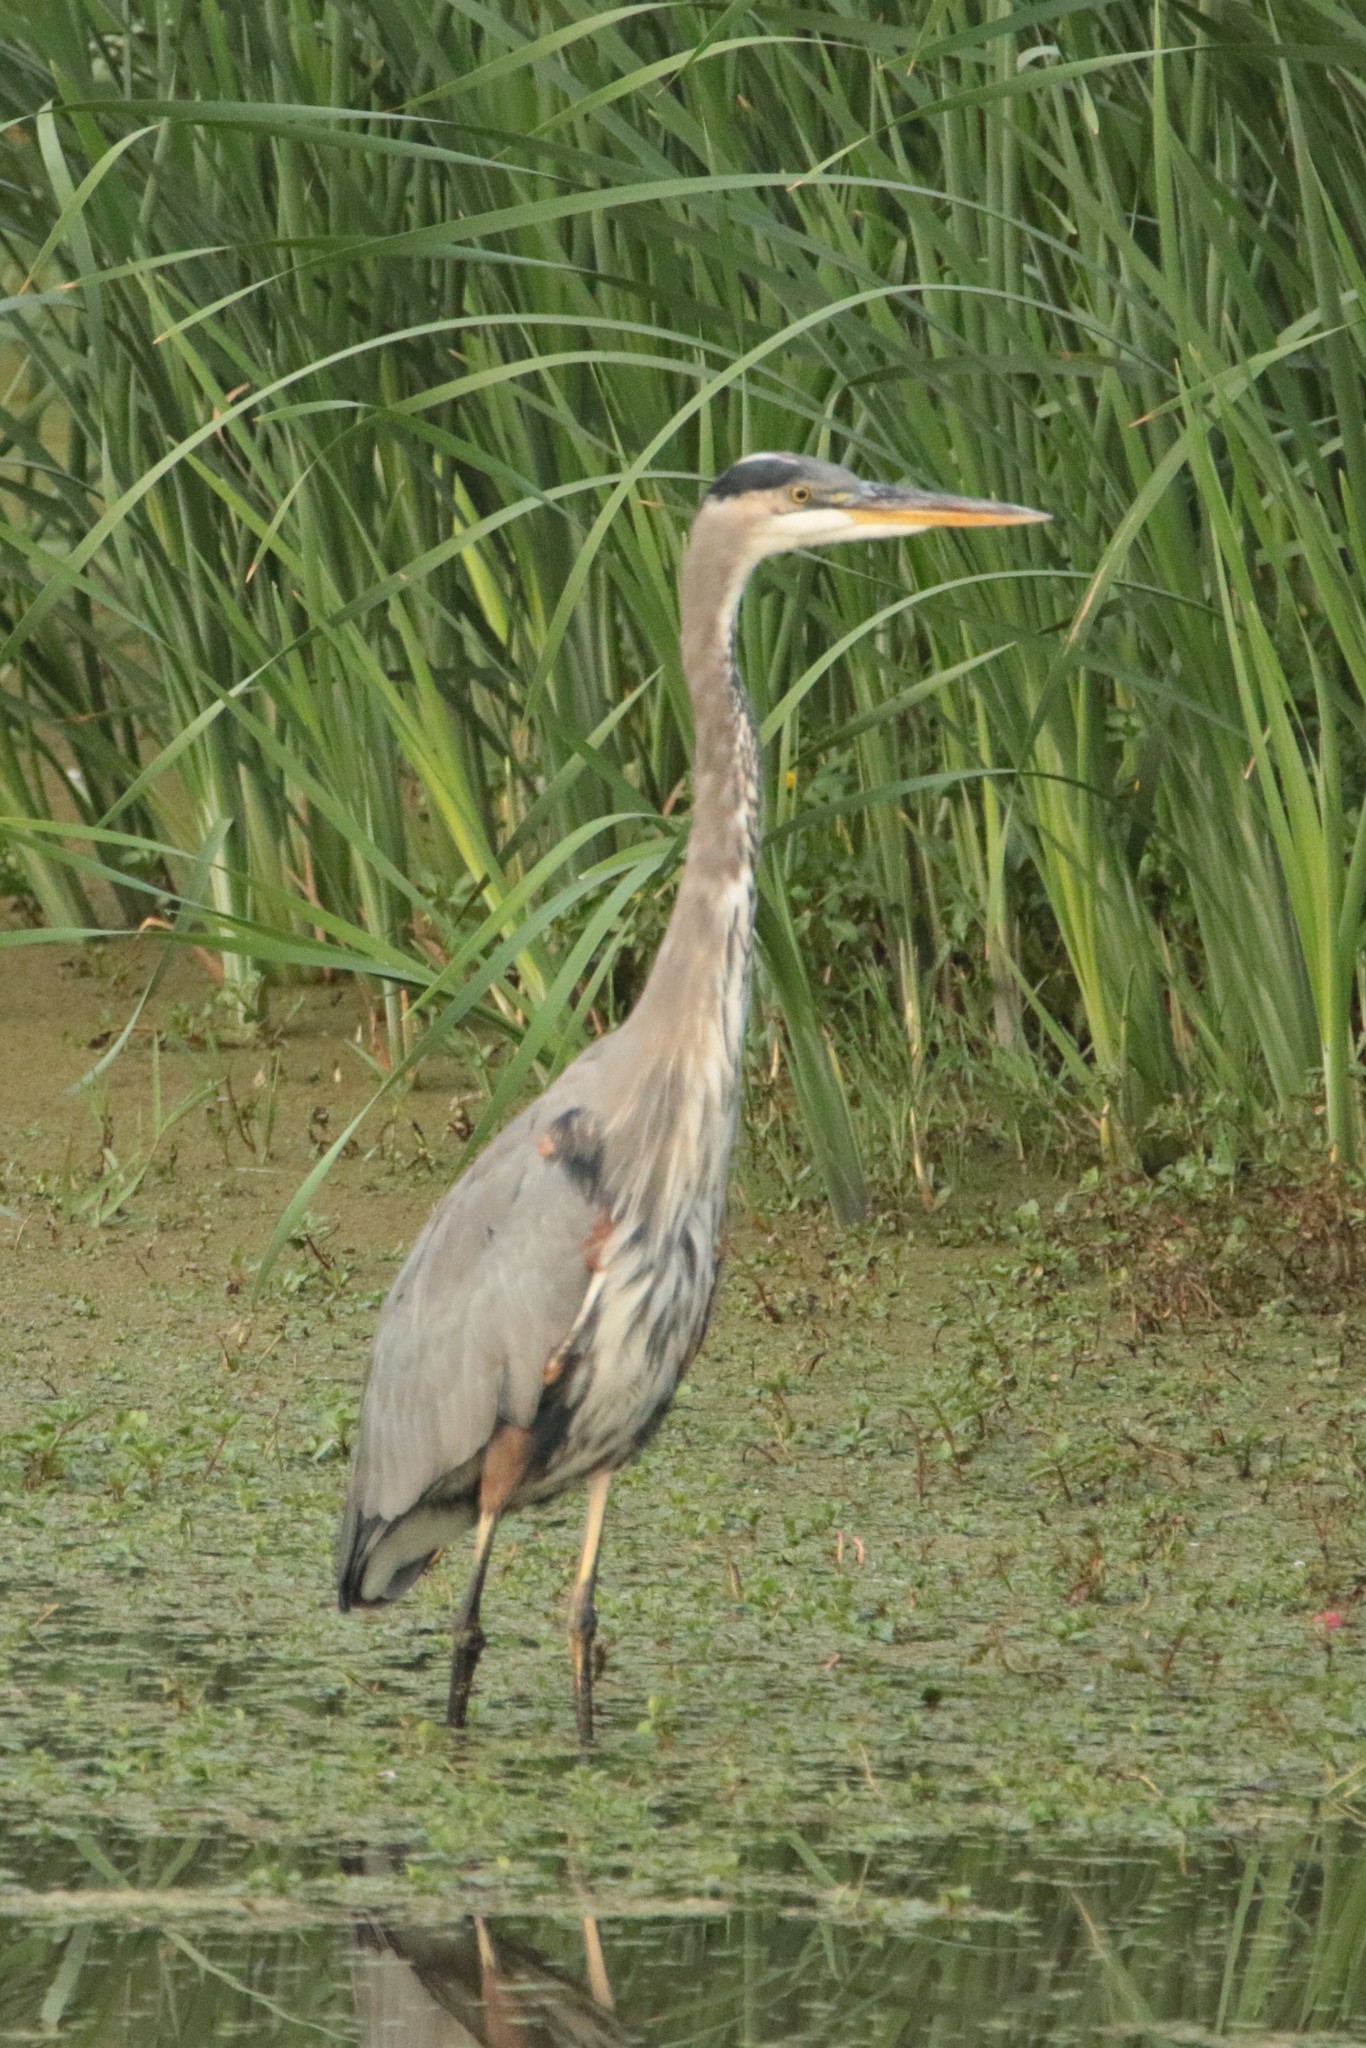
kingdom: Animalia
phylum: Chordata
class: Aves
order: Pelecaniformes
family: Ardeidae
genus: Ardea
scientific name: Ardea herodias
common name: Great blue heron
